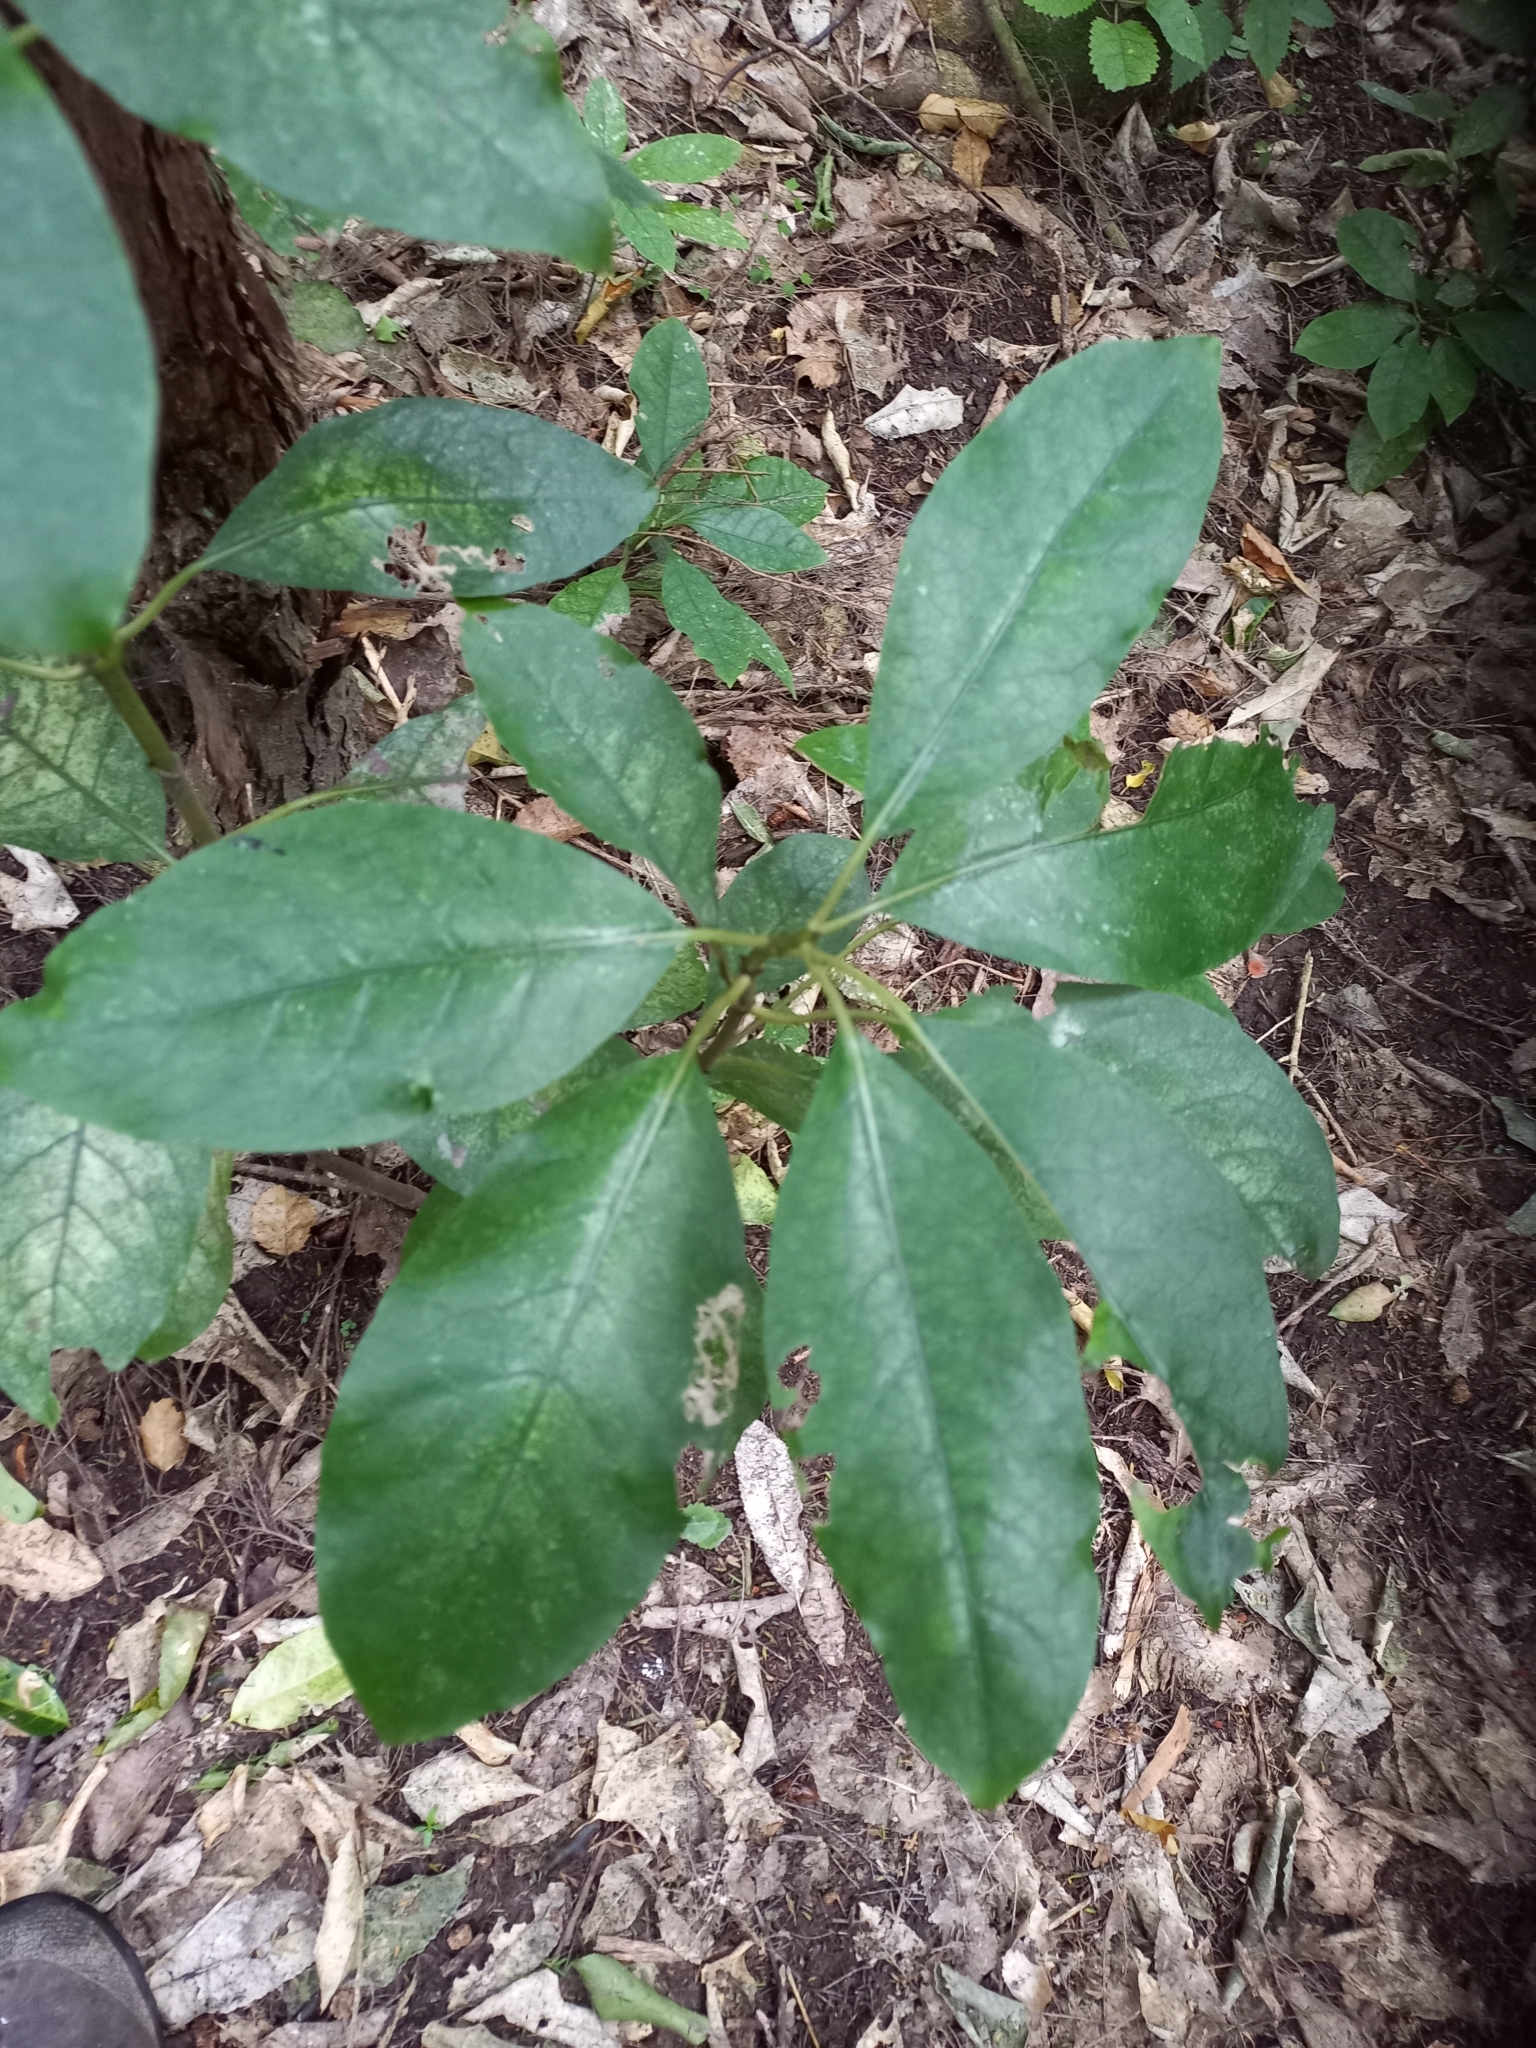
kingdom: Plantae
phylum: Tracheophyta
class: Magnoliopsida
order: Gentianales
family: Rubiaceae
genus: Coprosma
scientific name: Coprosma autumnalis
